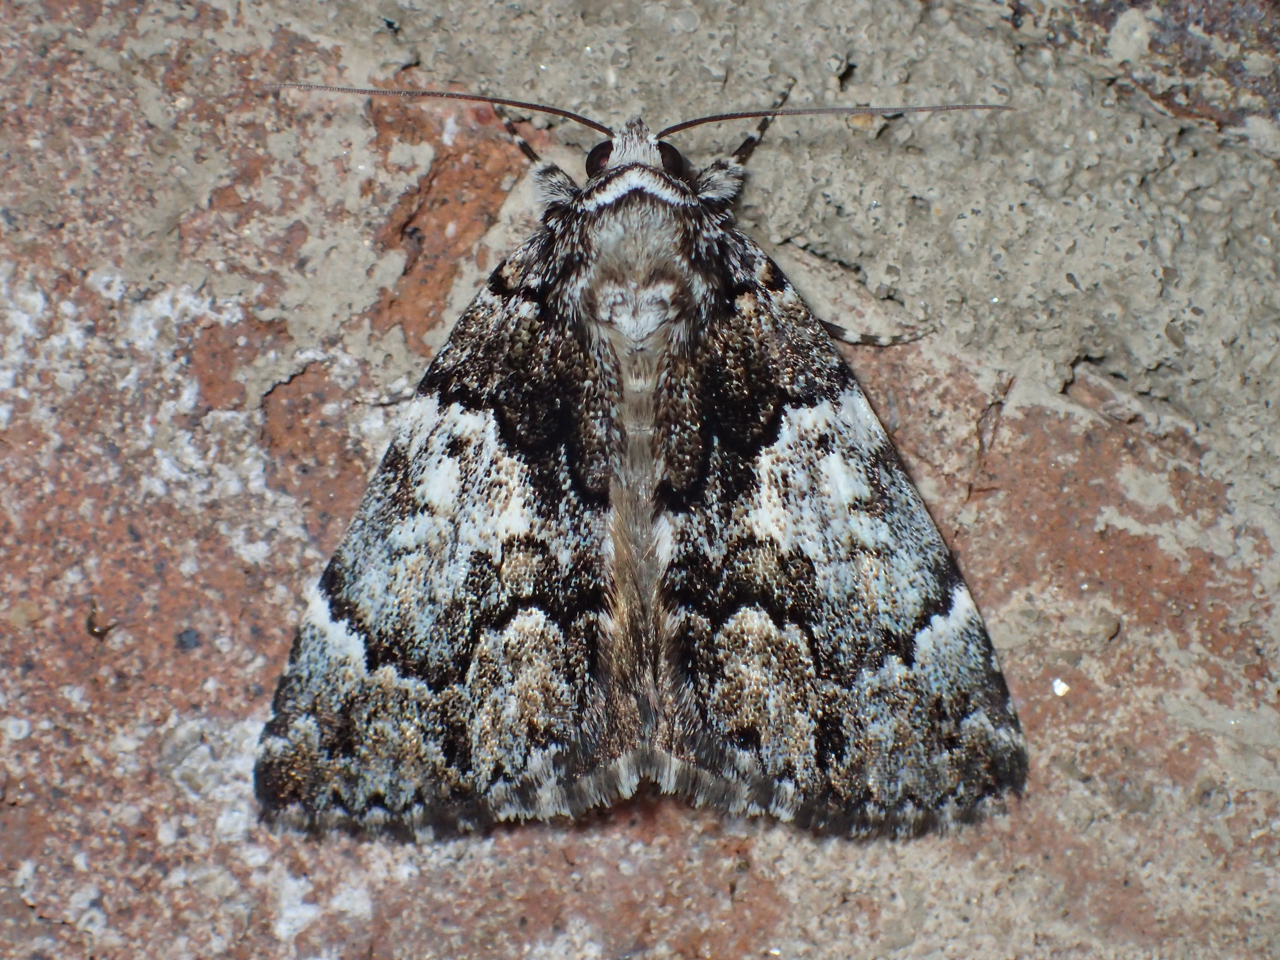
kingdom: Animalia
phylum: Arthropoda
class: Insecta
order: Lepidoptera
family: Erebidae
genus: Allotria
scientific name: Allotria elonympha
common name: False underwing
